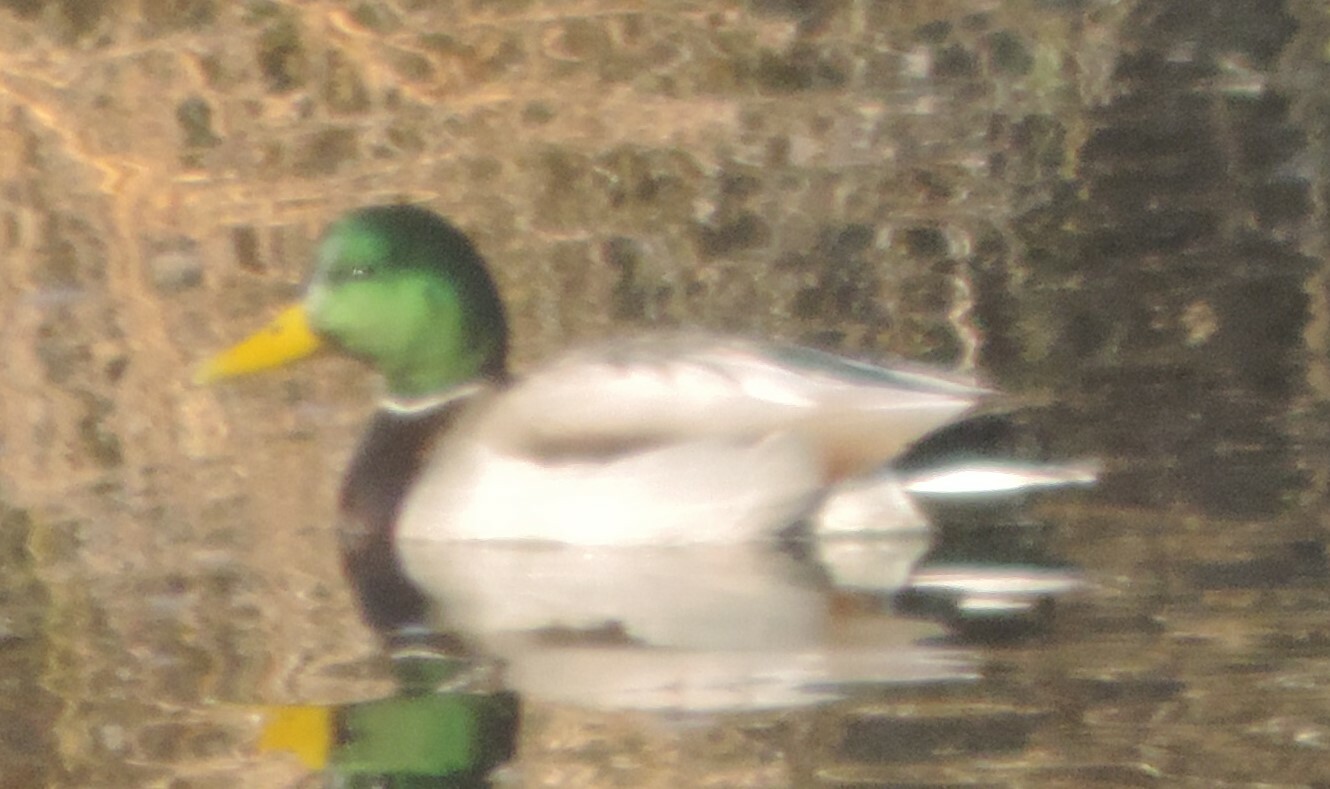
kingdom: Animalia
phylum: Chordata
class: Aves
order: Anseriformes
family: Anatidae
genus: Anas
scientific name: Anas platyrhynchos
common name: Mallard
